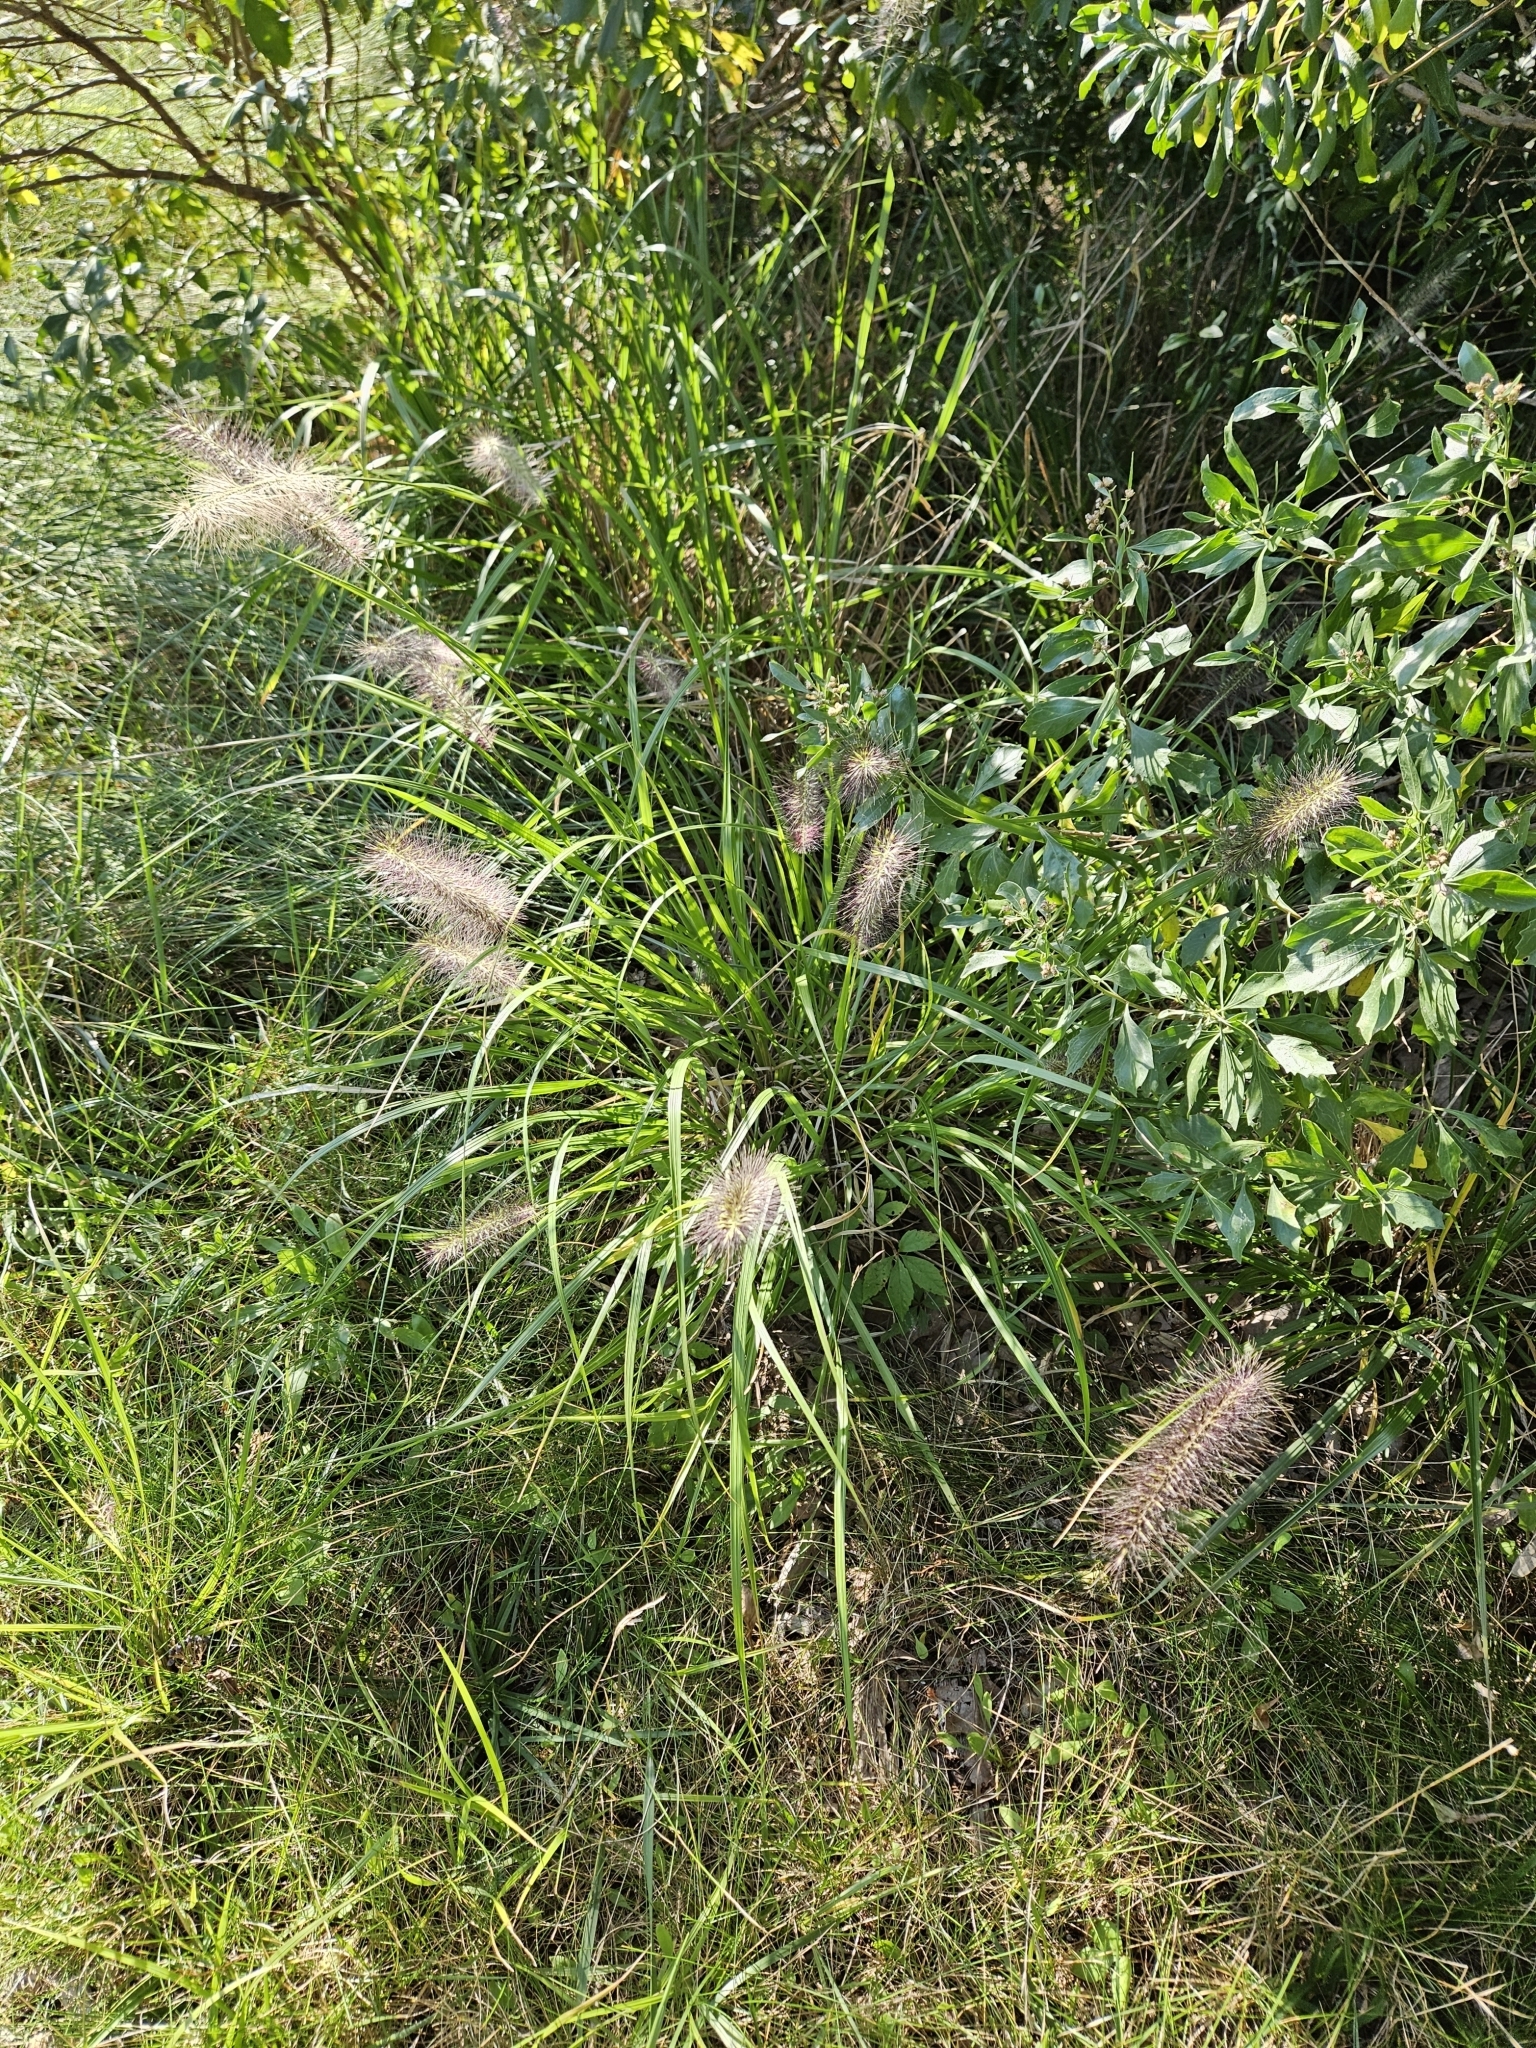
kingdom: Plantae
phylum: Tracheophyta
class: Liliopsida
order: Poales
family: Poaceae
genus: Cenchrus
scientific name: Cenchrus alopecuroides
